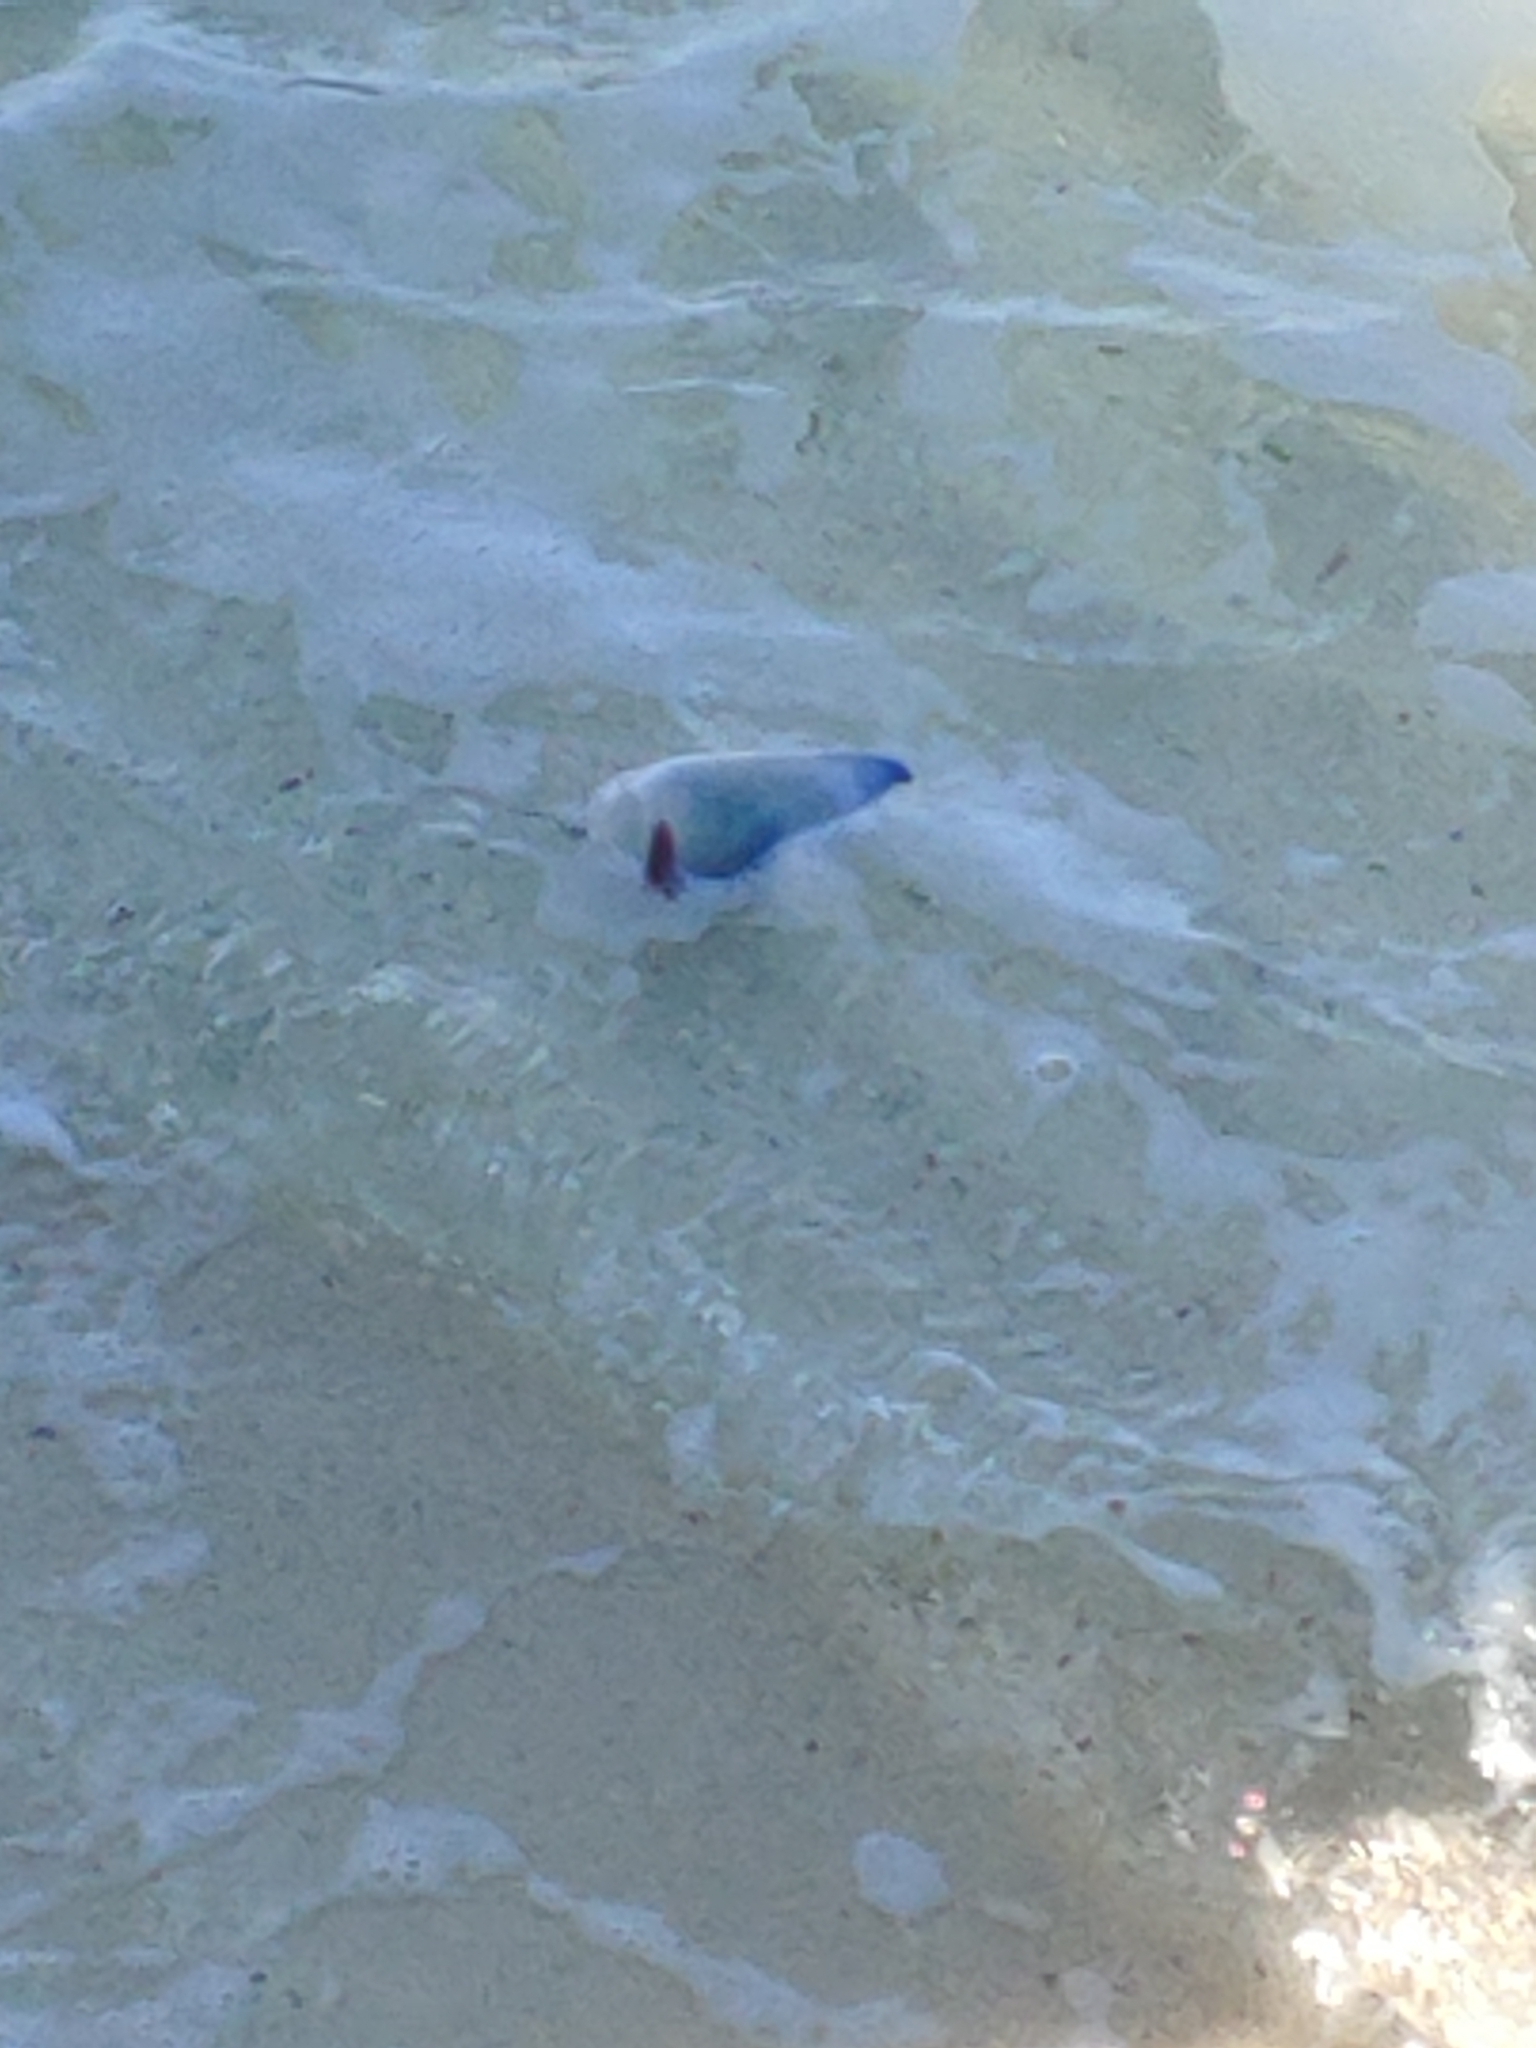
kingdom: Animalia
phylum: Cnidaria
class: Hydrozoa
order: Siphonophorae
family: Physaliidae
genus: Physalia
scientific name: Physalia physalis
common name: Portuguese man-of-war
